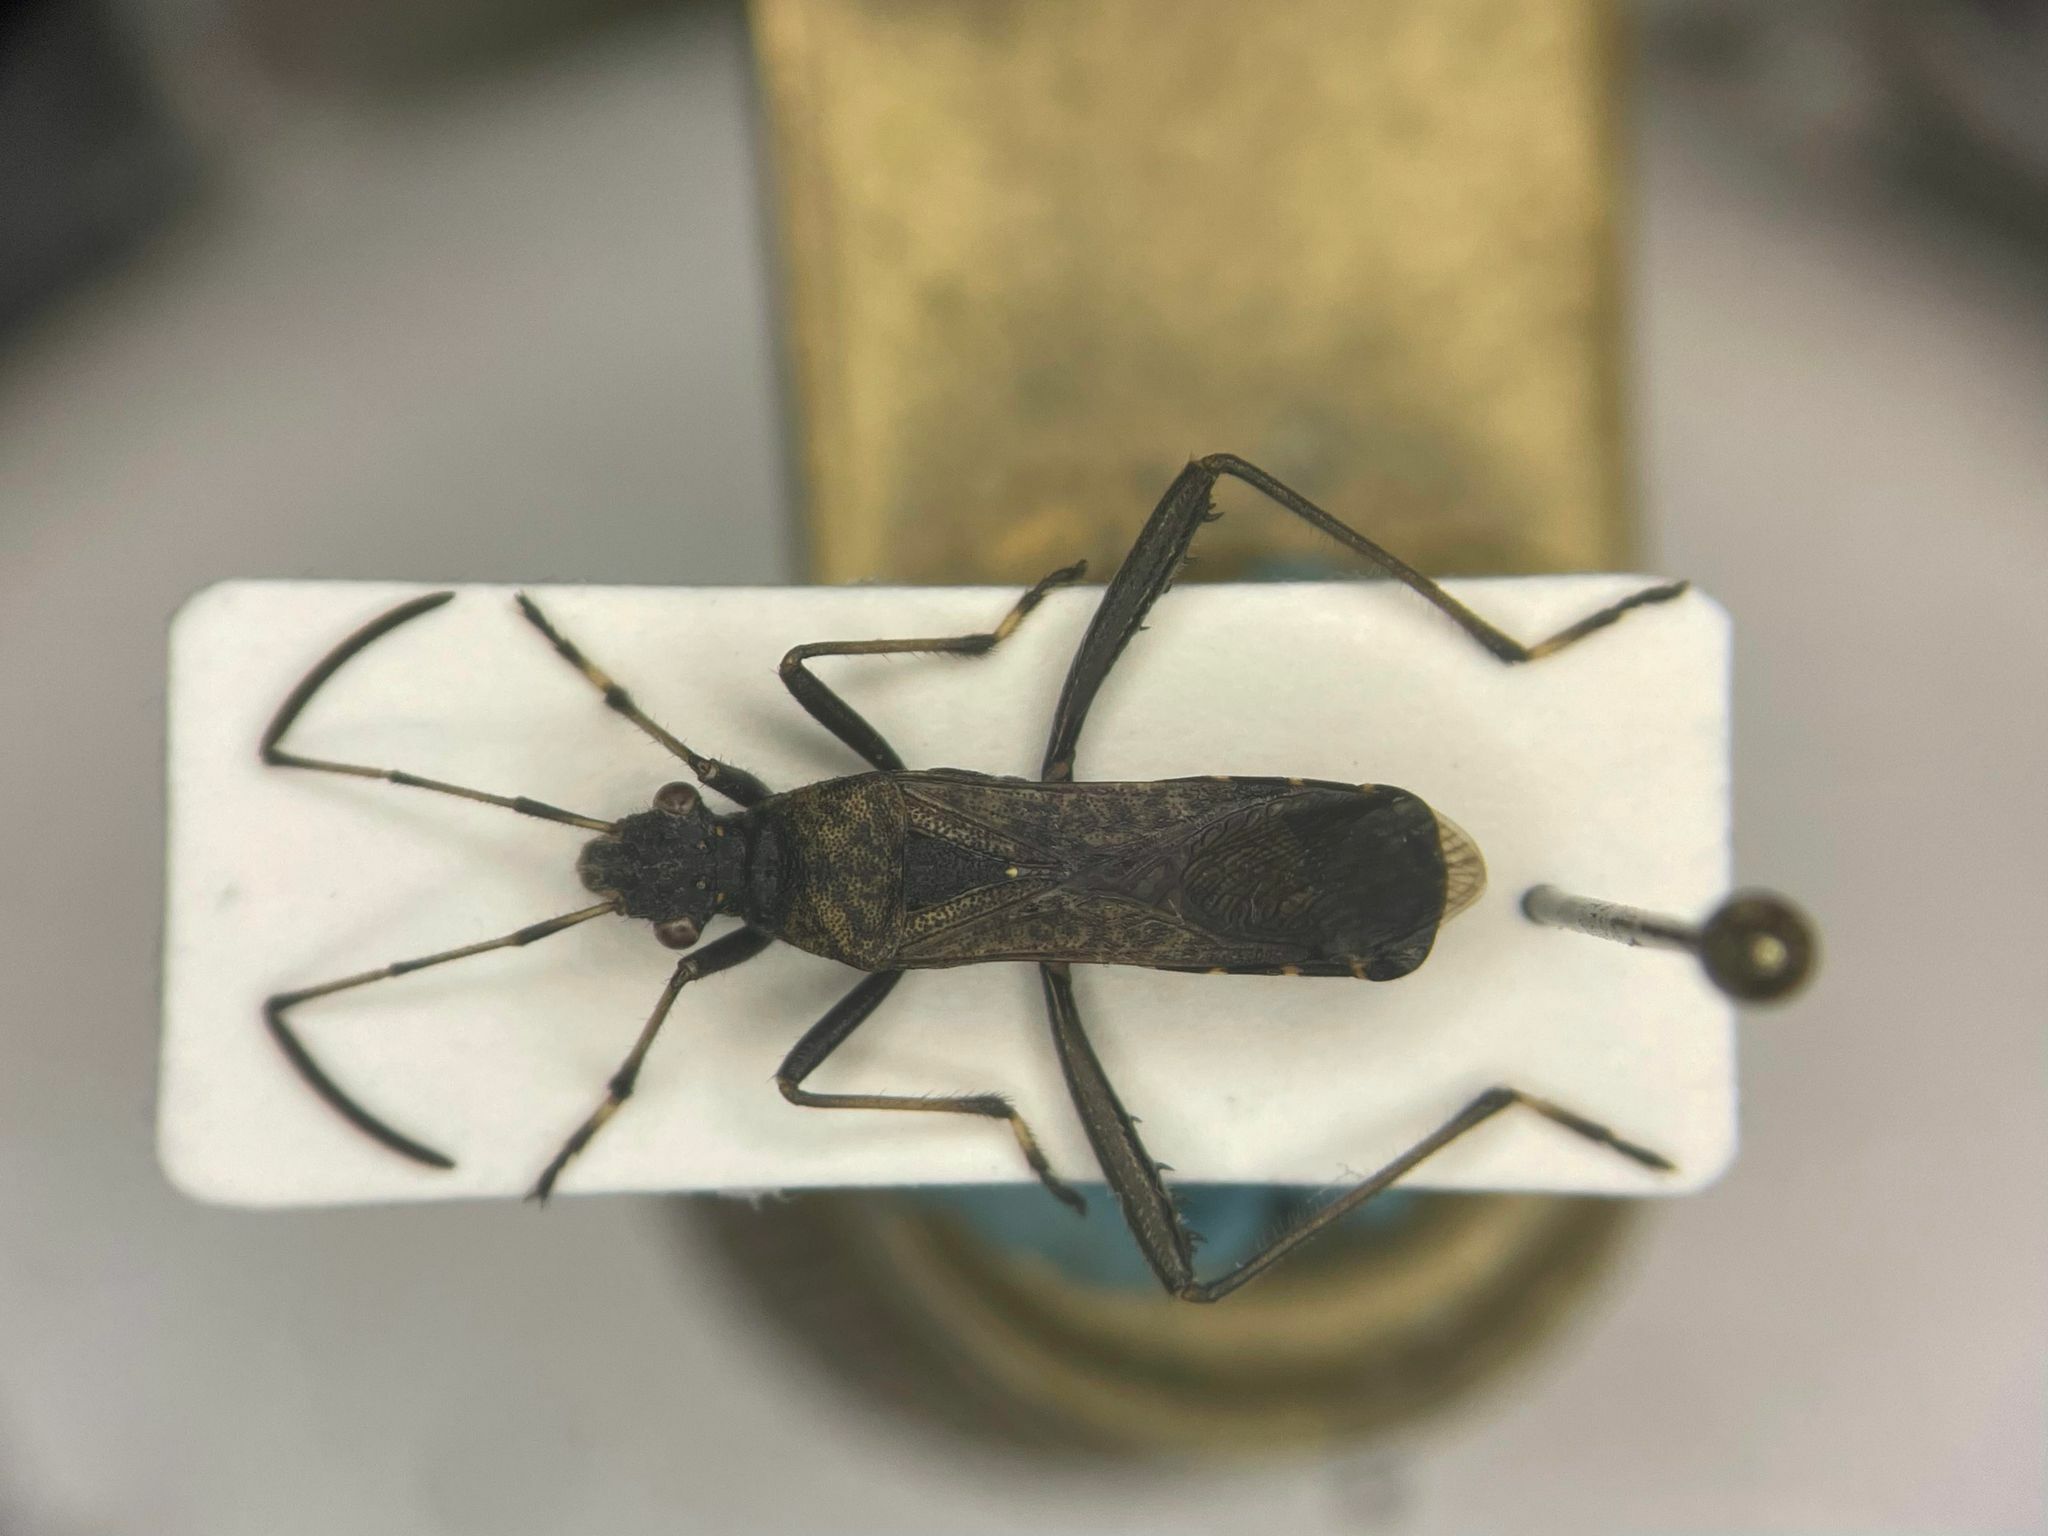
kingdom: Animalia
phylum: Arthropoda
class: Insecta
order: Hemiptera
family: Alydidae
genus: Alydus
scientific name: Alydus conspersus
